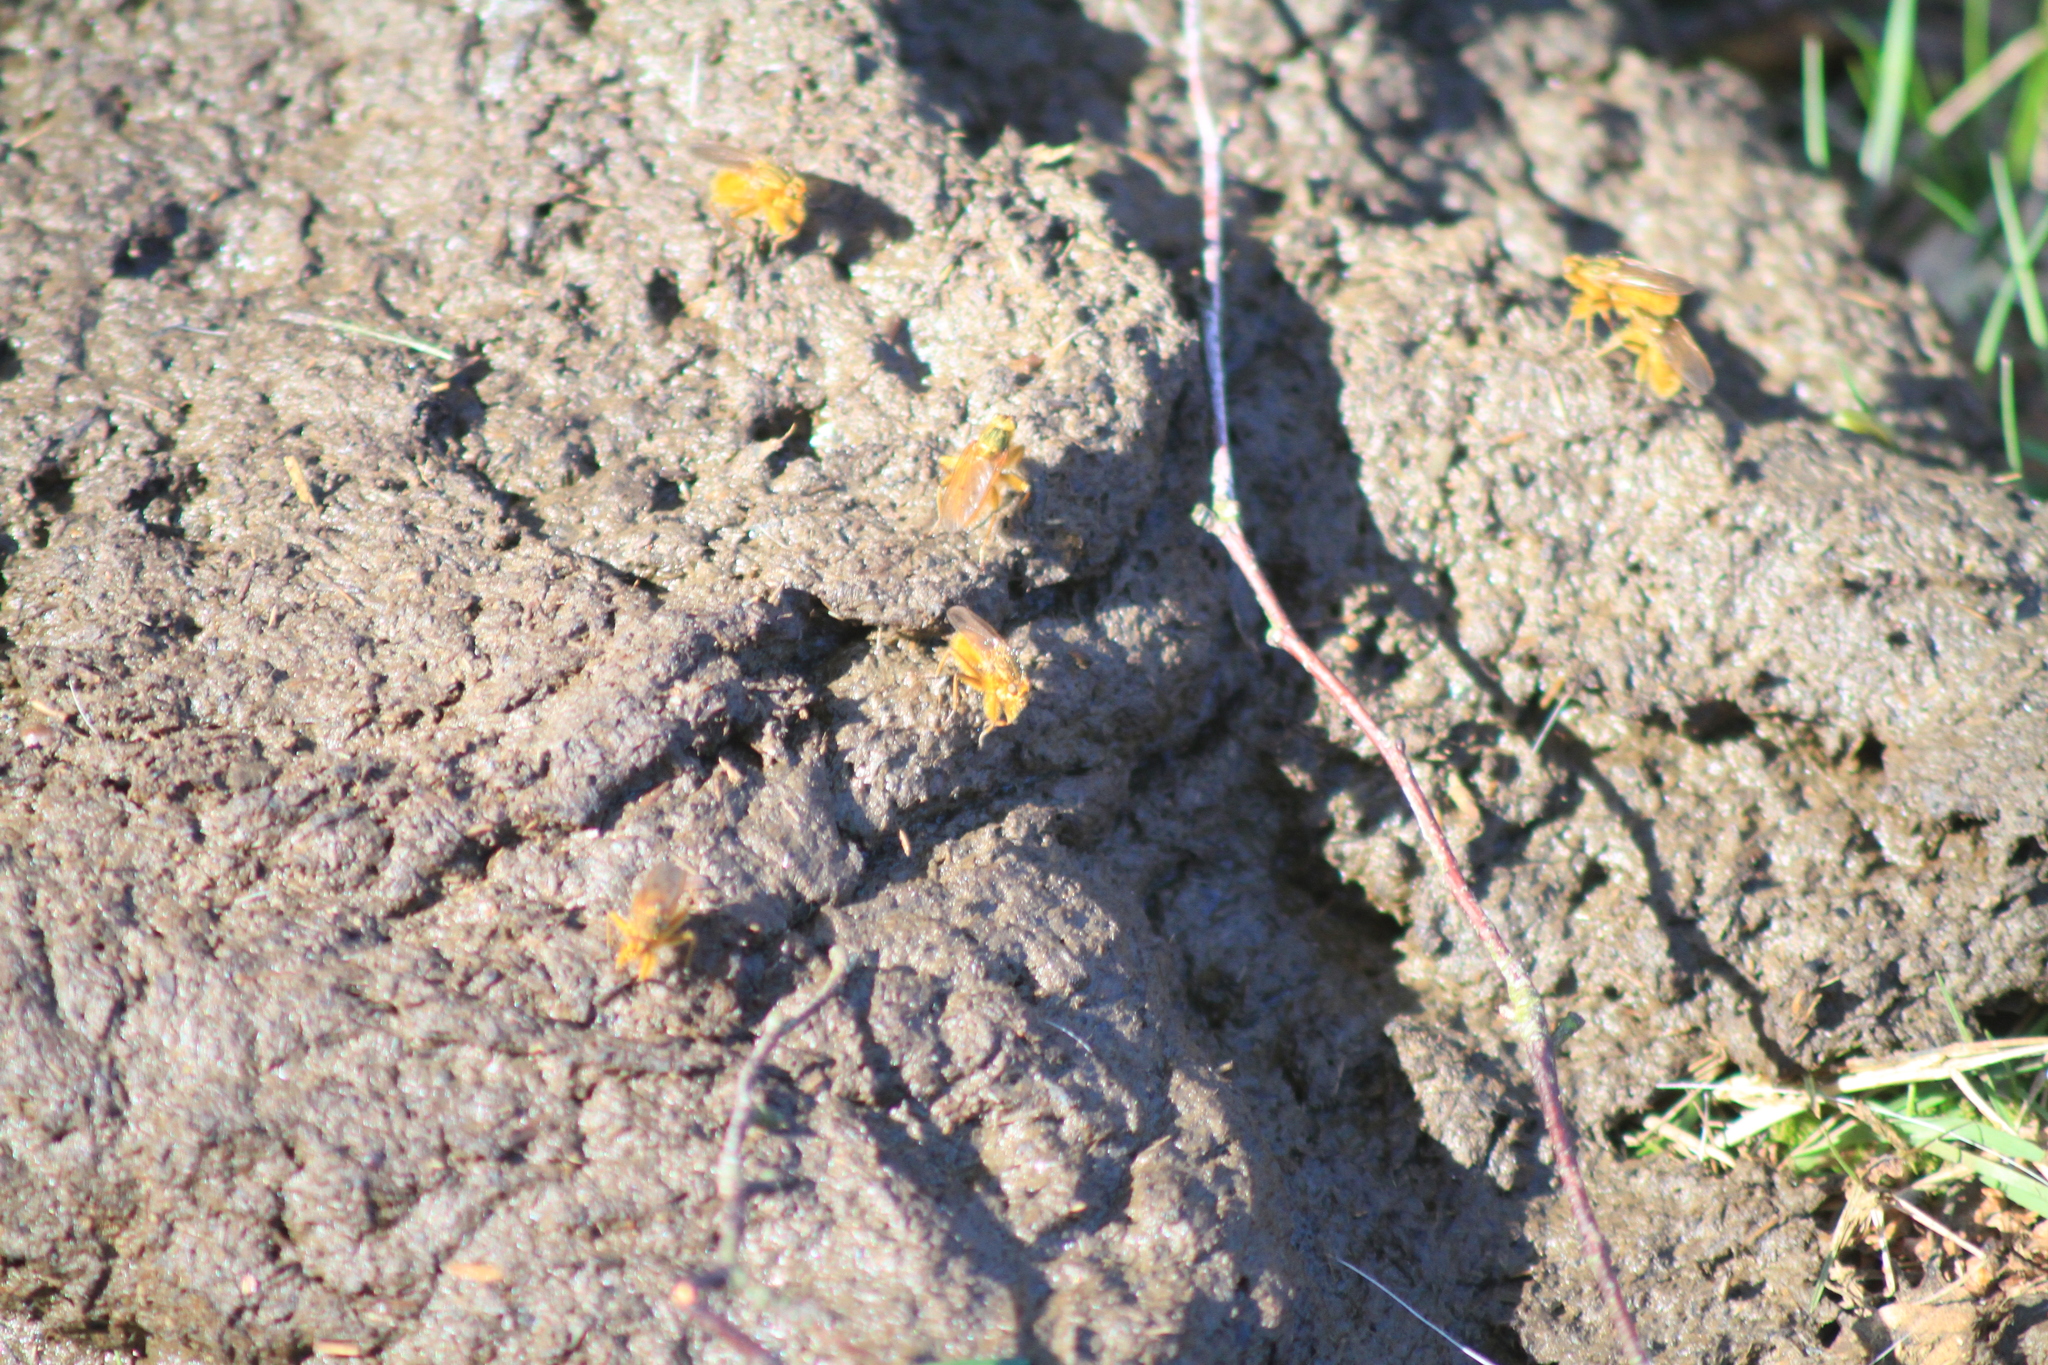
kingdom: Animalia
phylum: Arthropoda
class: Insecta
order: Diptera
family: Scathophagidae
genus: Scathophaga
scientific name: Scathophaga stercoraria
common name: Yellow dung fly
